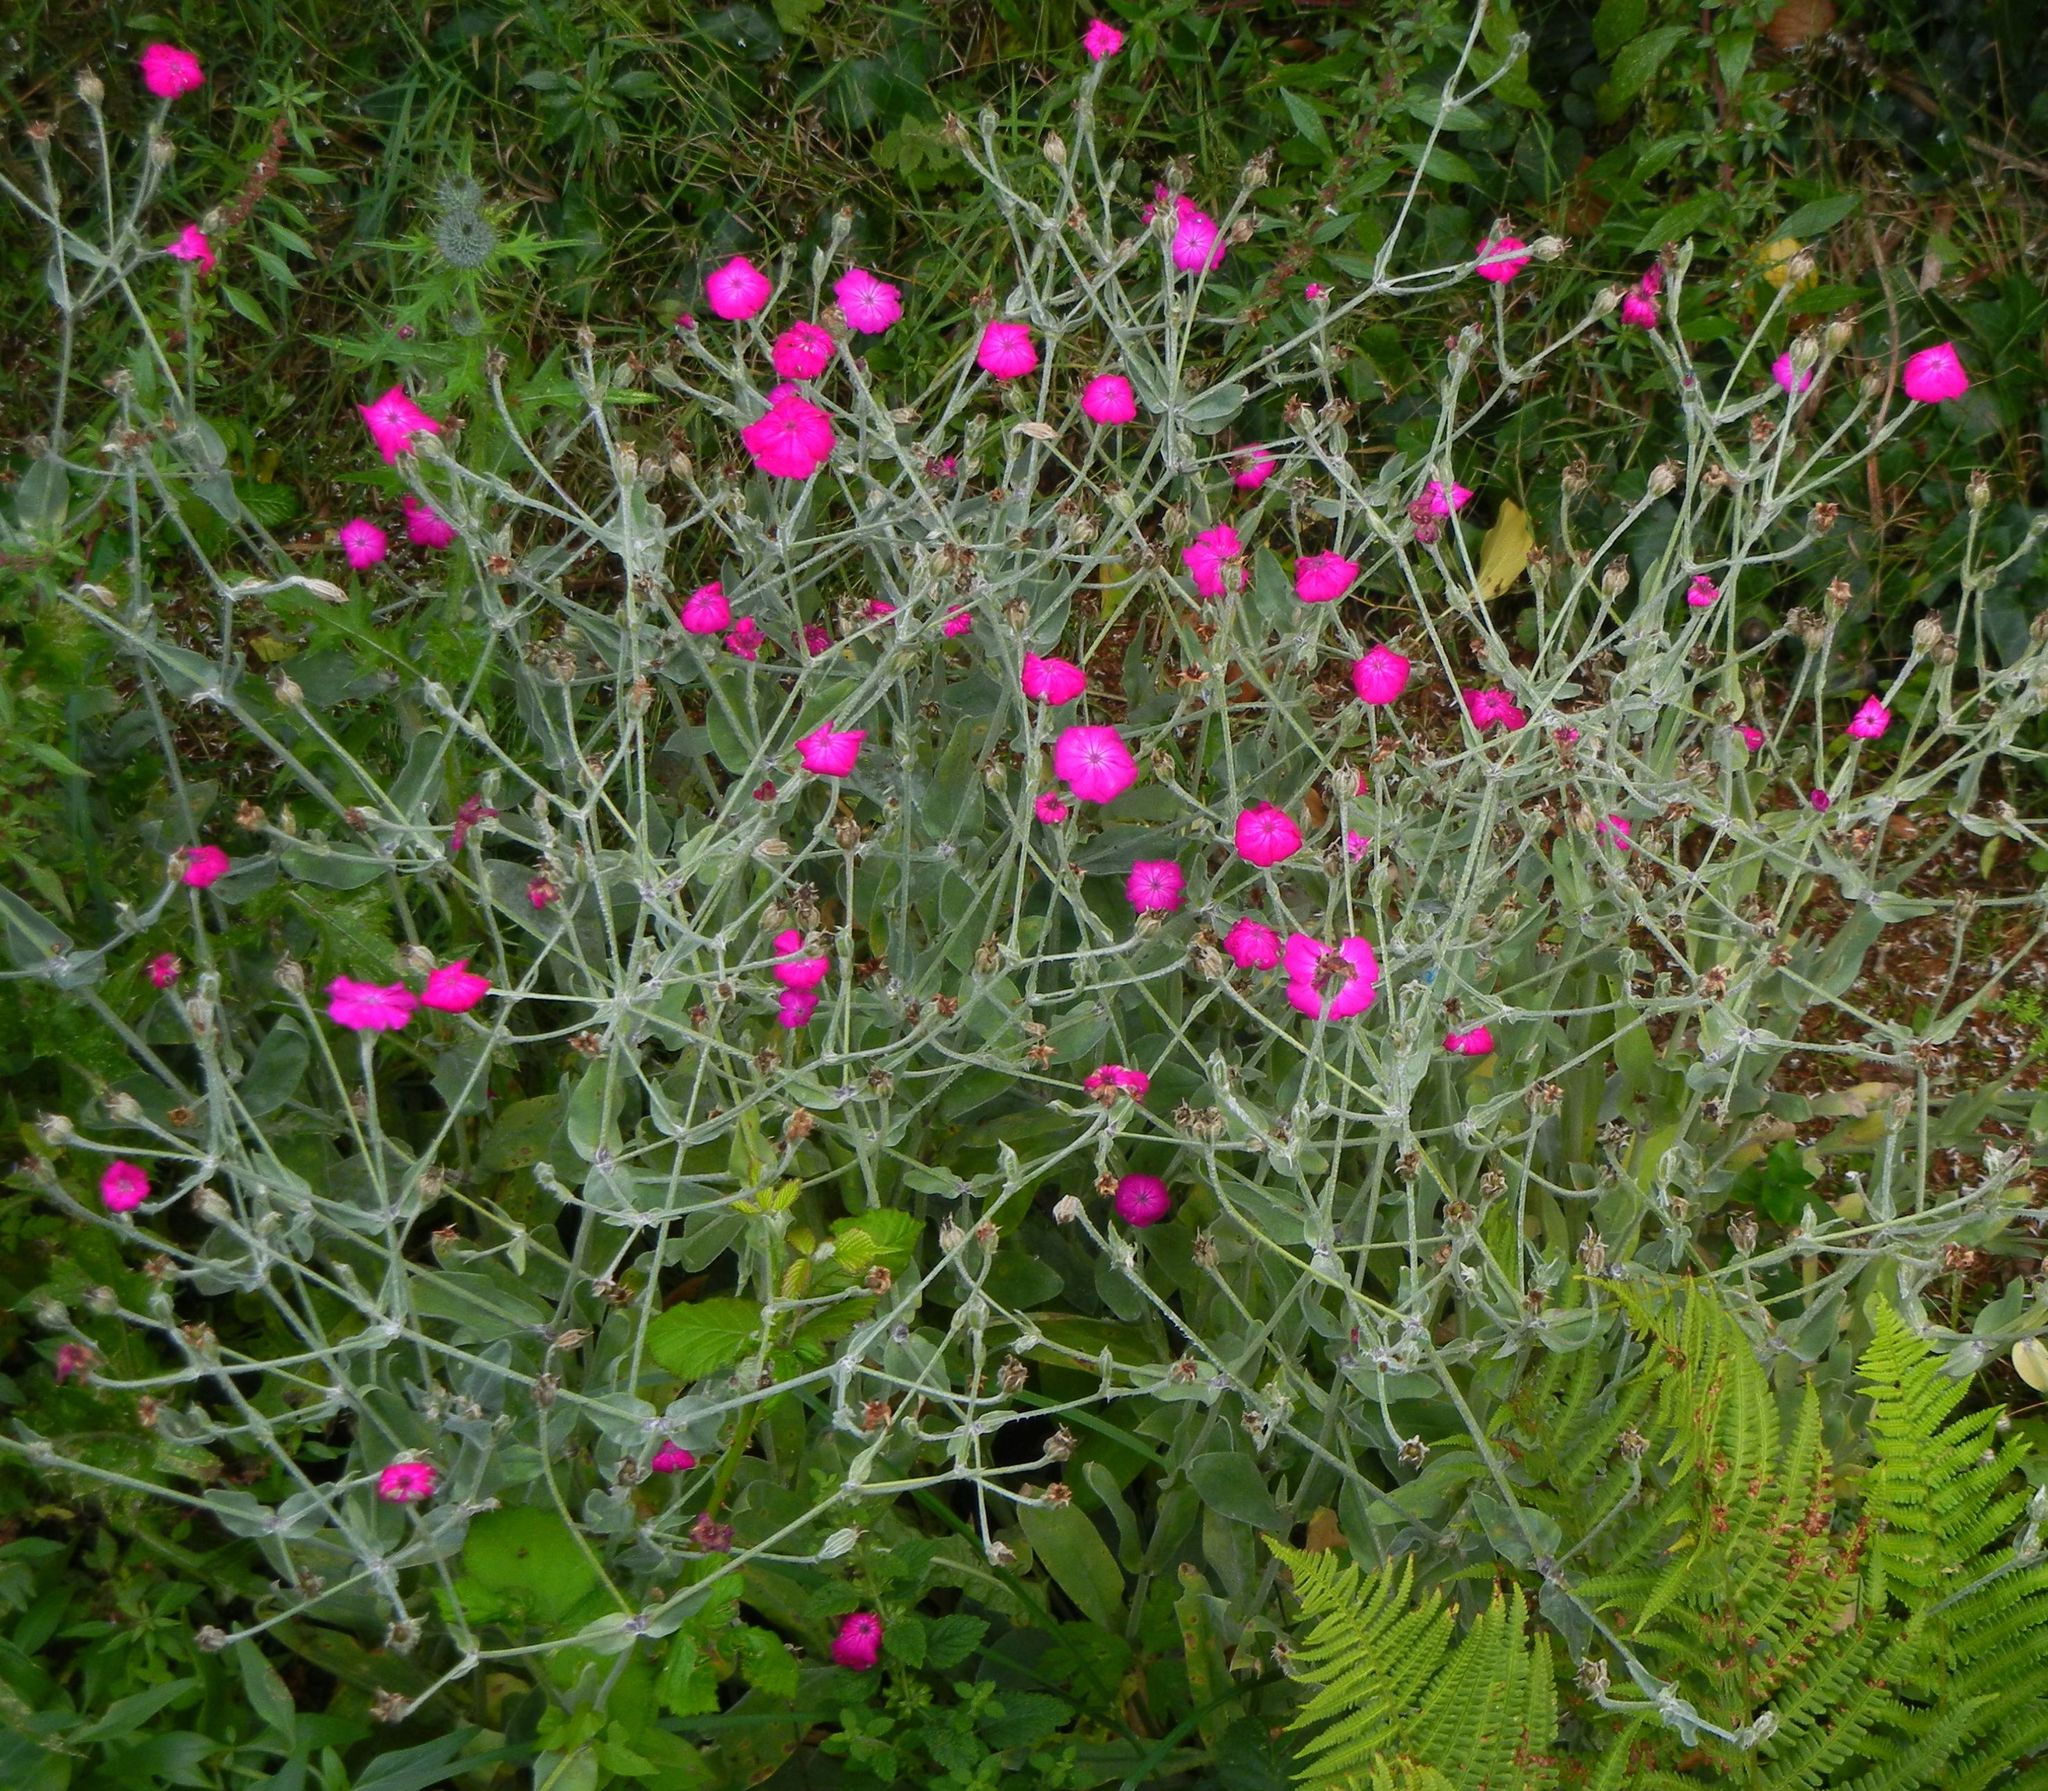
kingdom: Plantae
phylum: Tracheophyta
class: Magnoliopsida
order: Caryophyllales
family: Caryophyllaceae
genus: Silene
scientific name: Silene coronaria
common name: Rose campion
